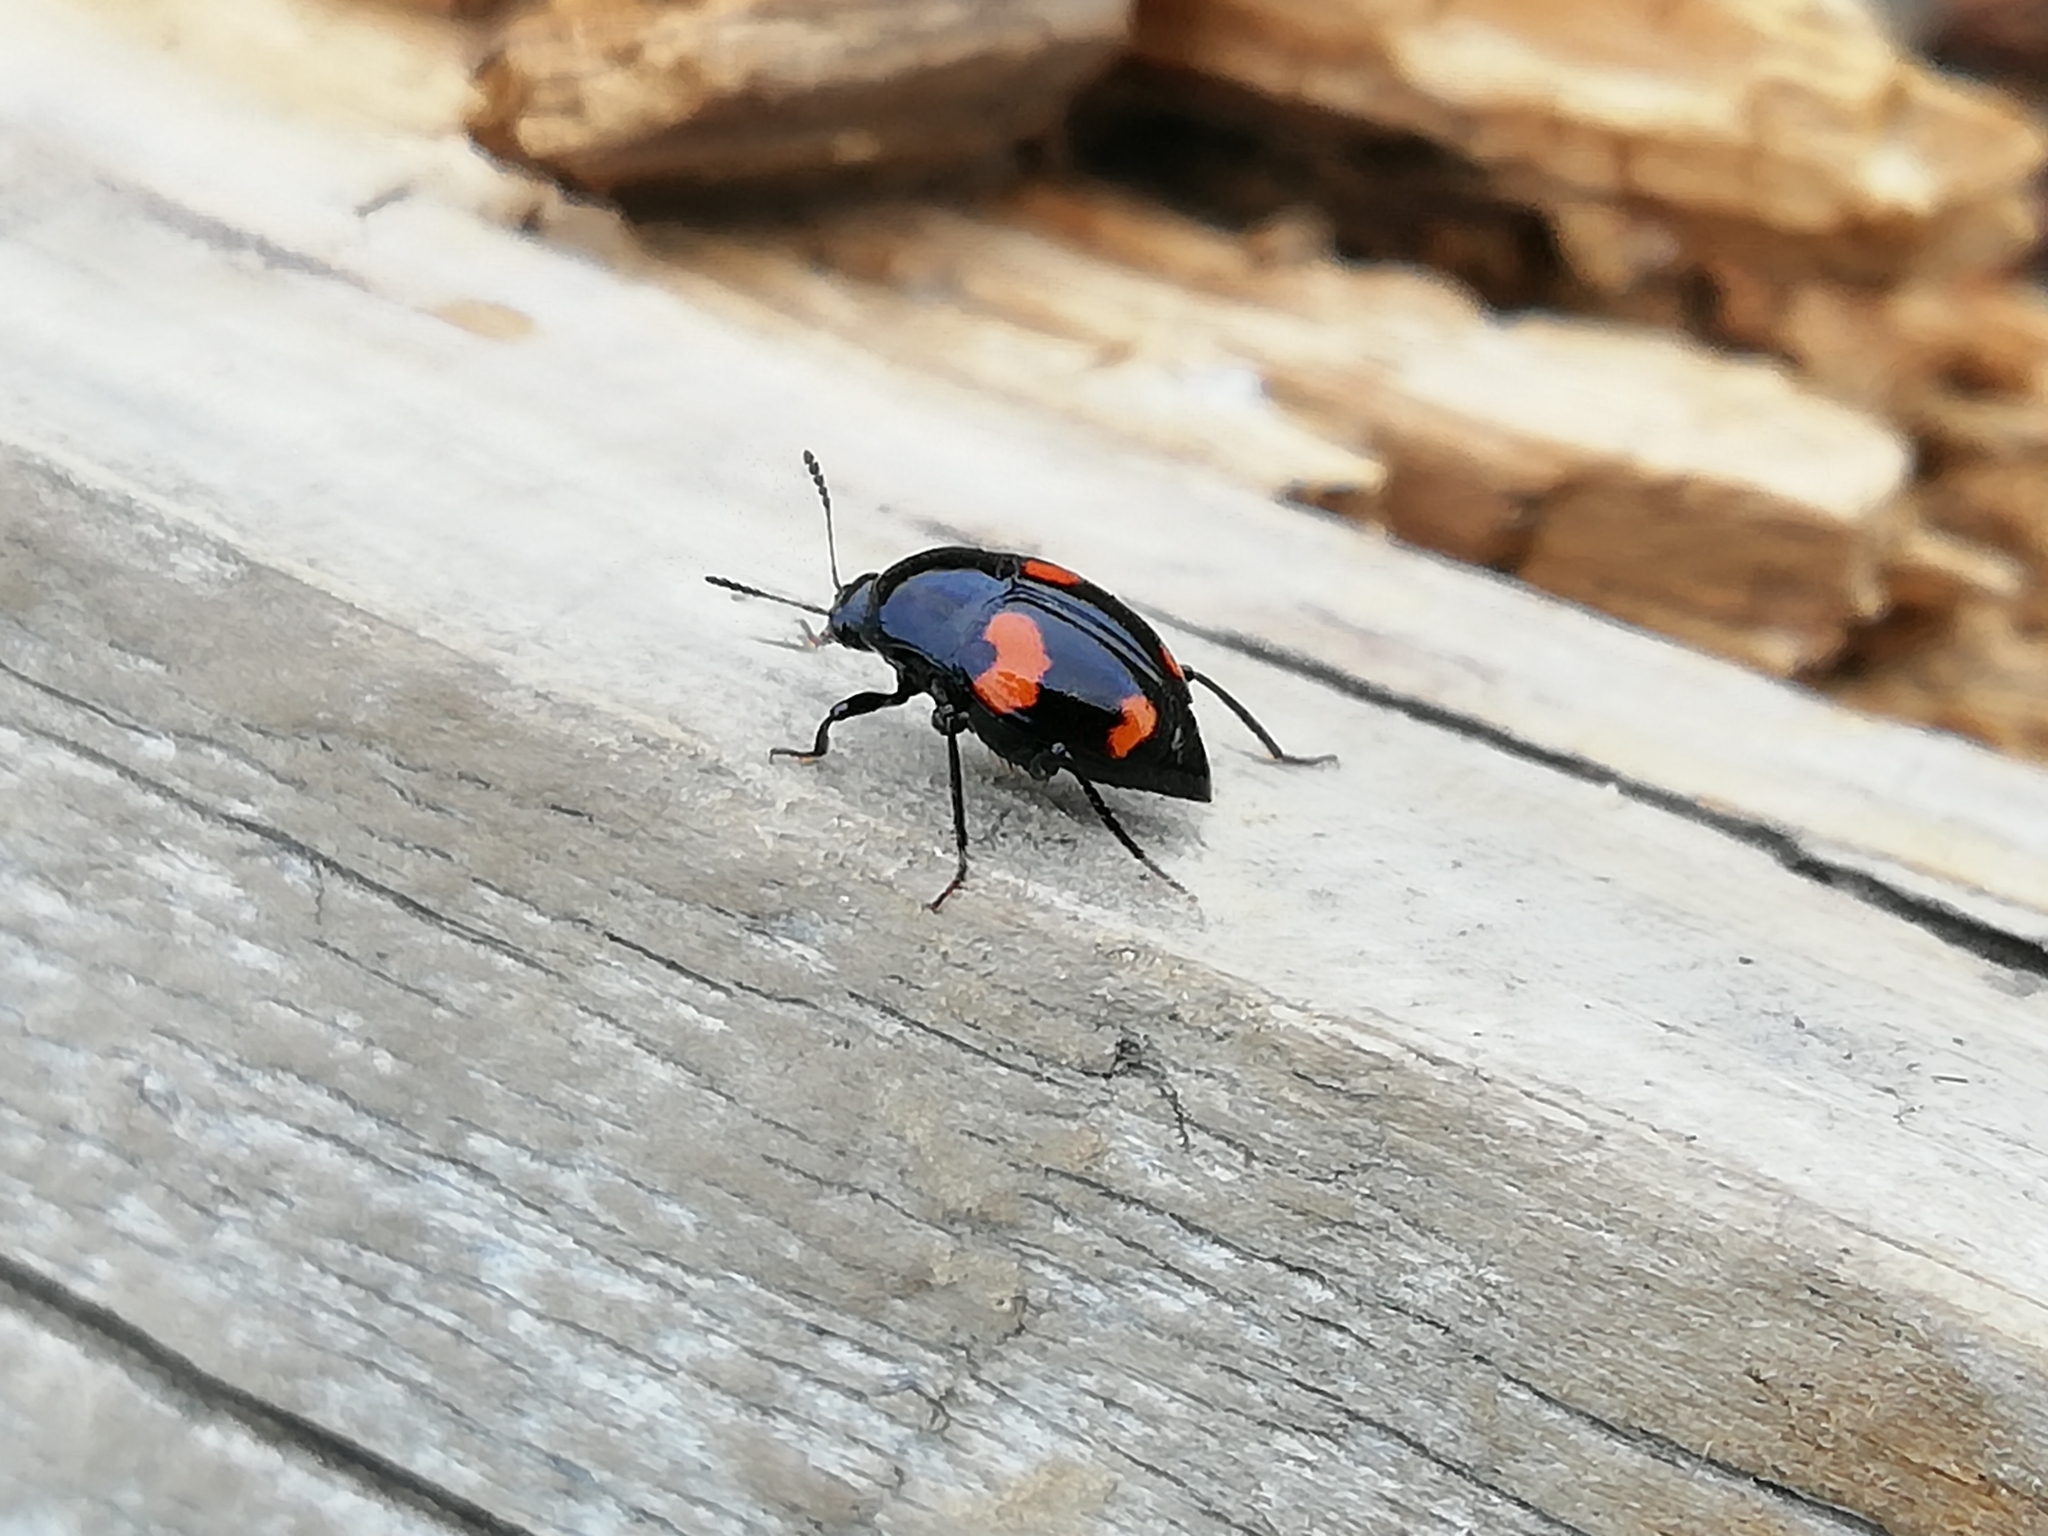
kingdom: Animalia
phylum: Arthropoda
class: Insecta
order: Coleoptera
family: Staphylinidae
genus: Scaphidium
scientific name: Scaphidium quadrimaculatum
